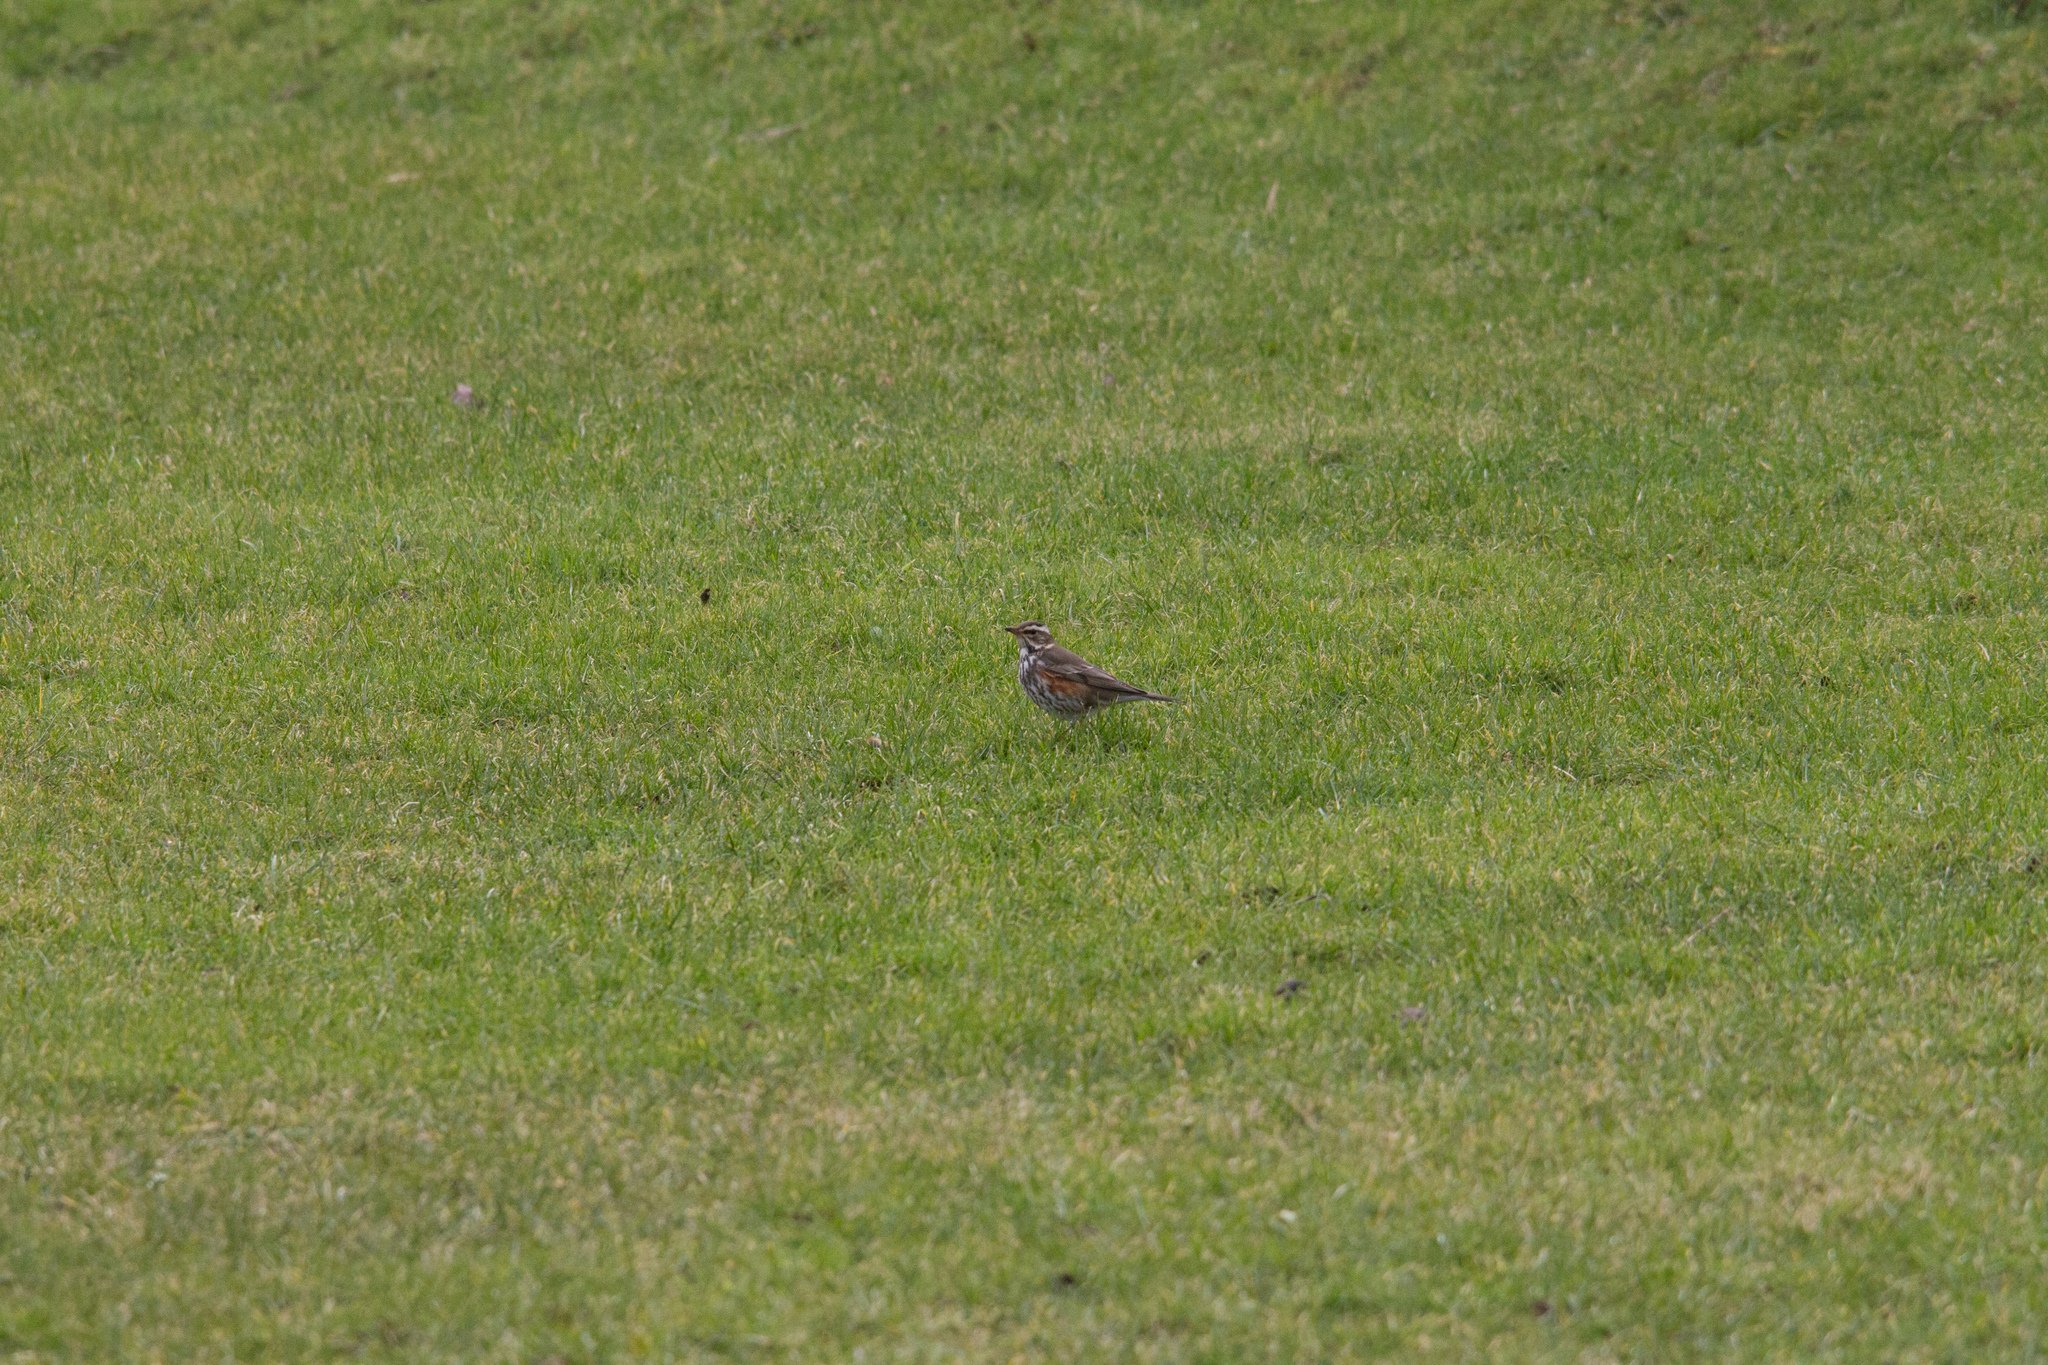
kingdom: Animalia
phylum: Chordata
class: Aves
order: Passeriformes
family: Turdidae
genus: Turdus
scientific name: Turdus iliacus
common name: Redwing
